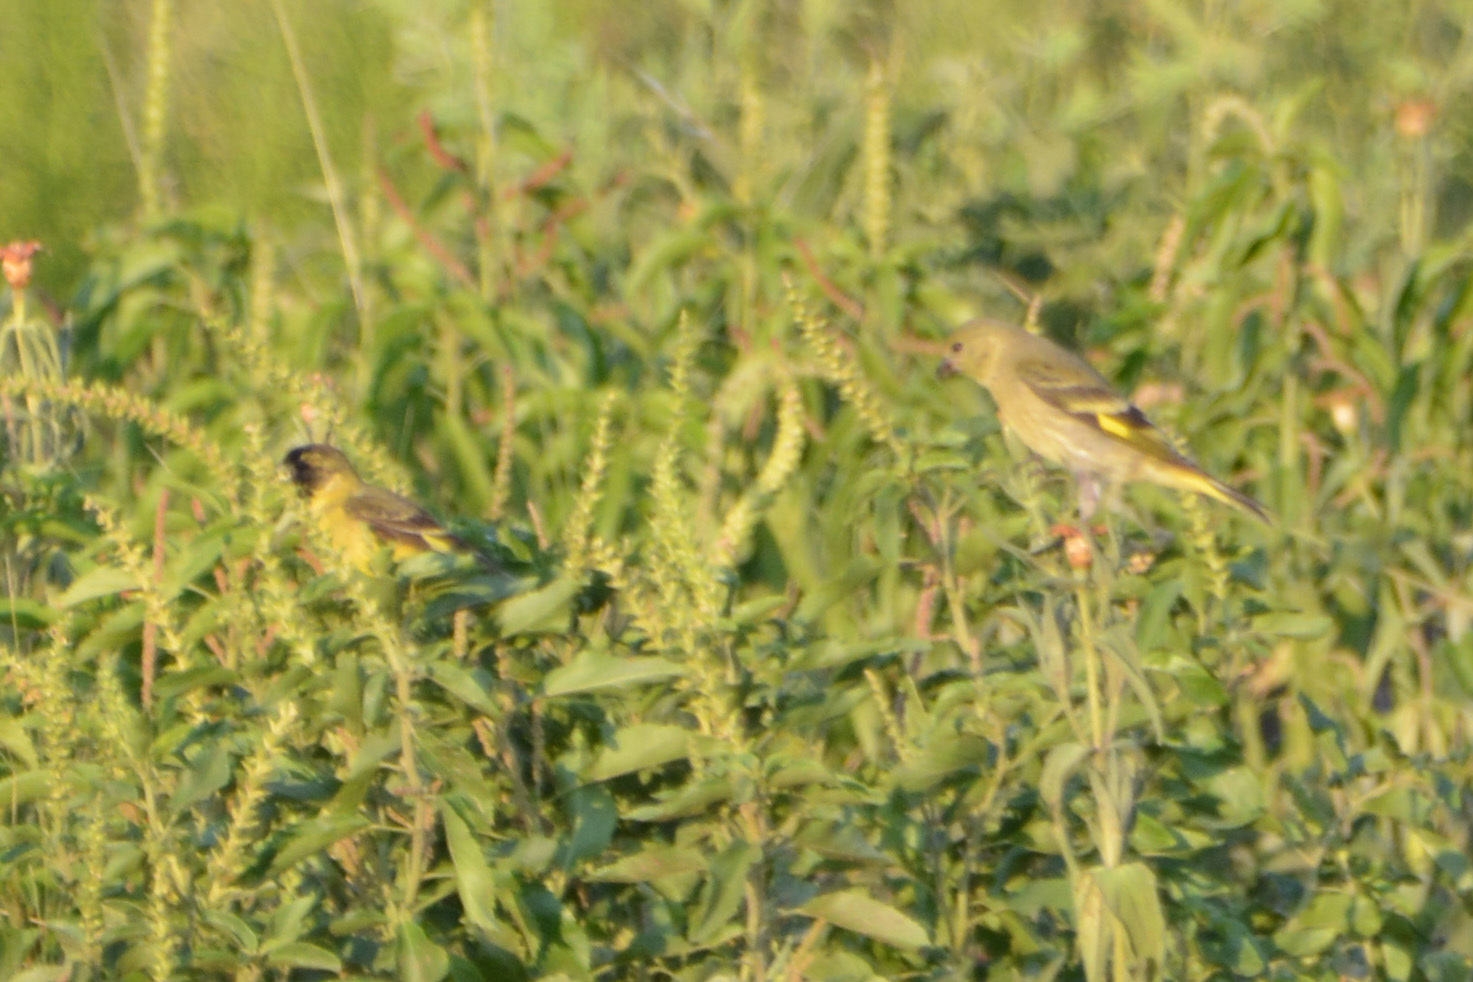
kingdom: Animalia
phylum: Chordata
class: Aves
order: Passeriformes
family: Fringillidae
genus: Spinus
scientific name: Spinus magellanicus
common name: Hooded siskin
